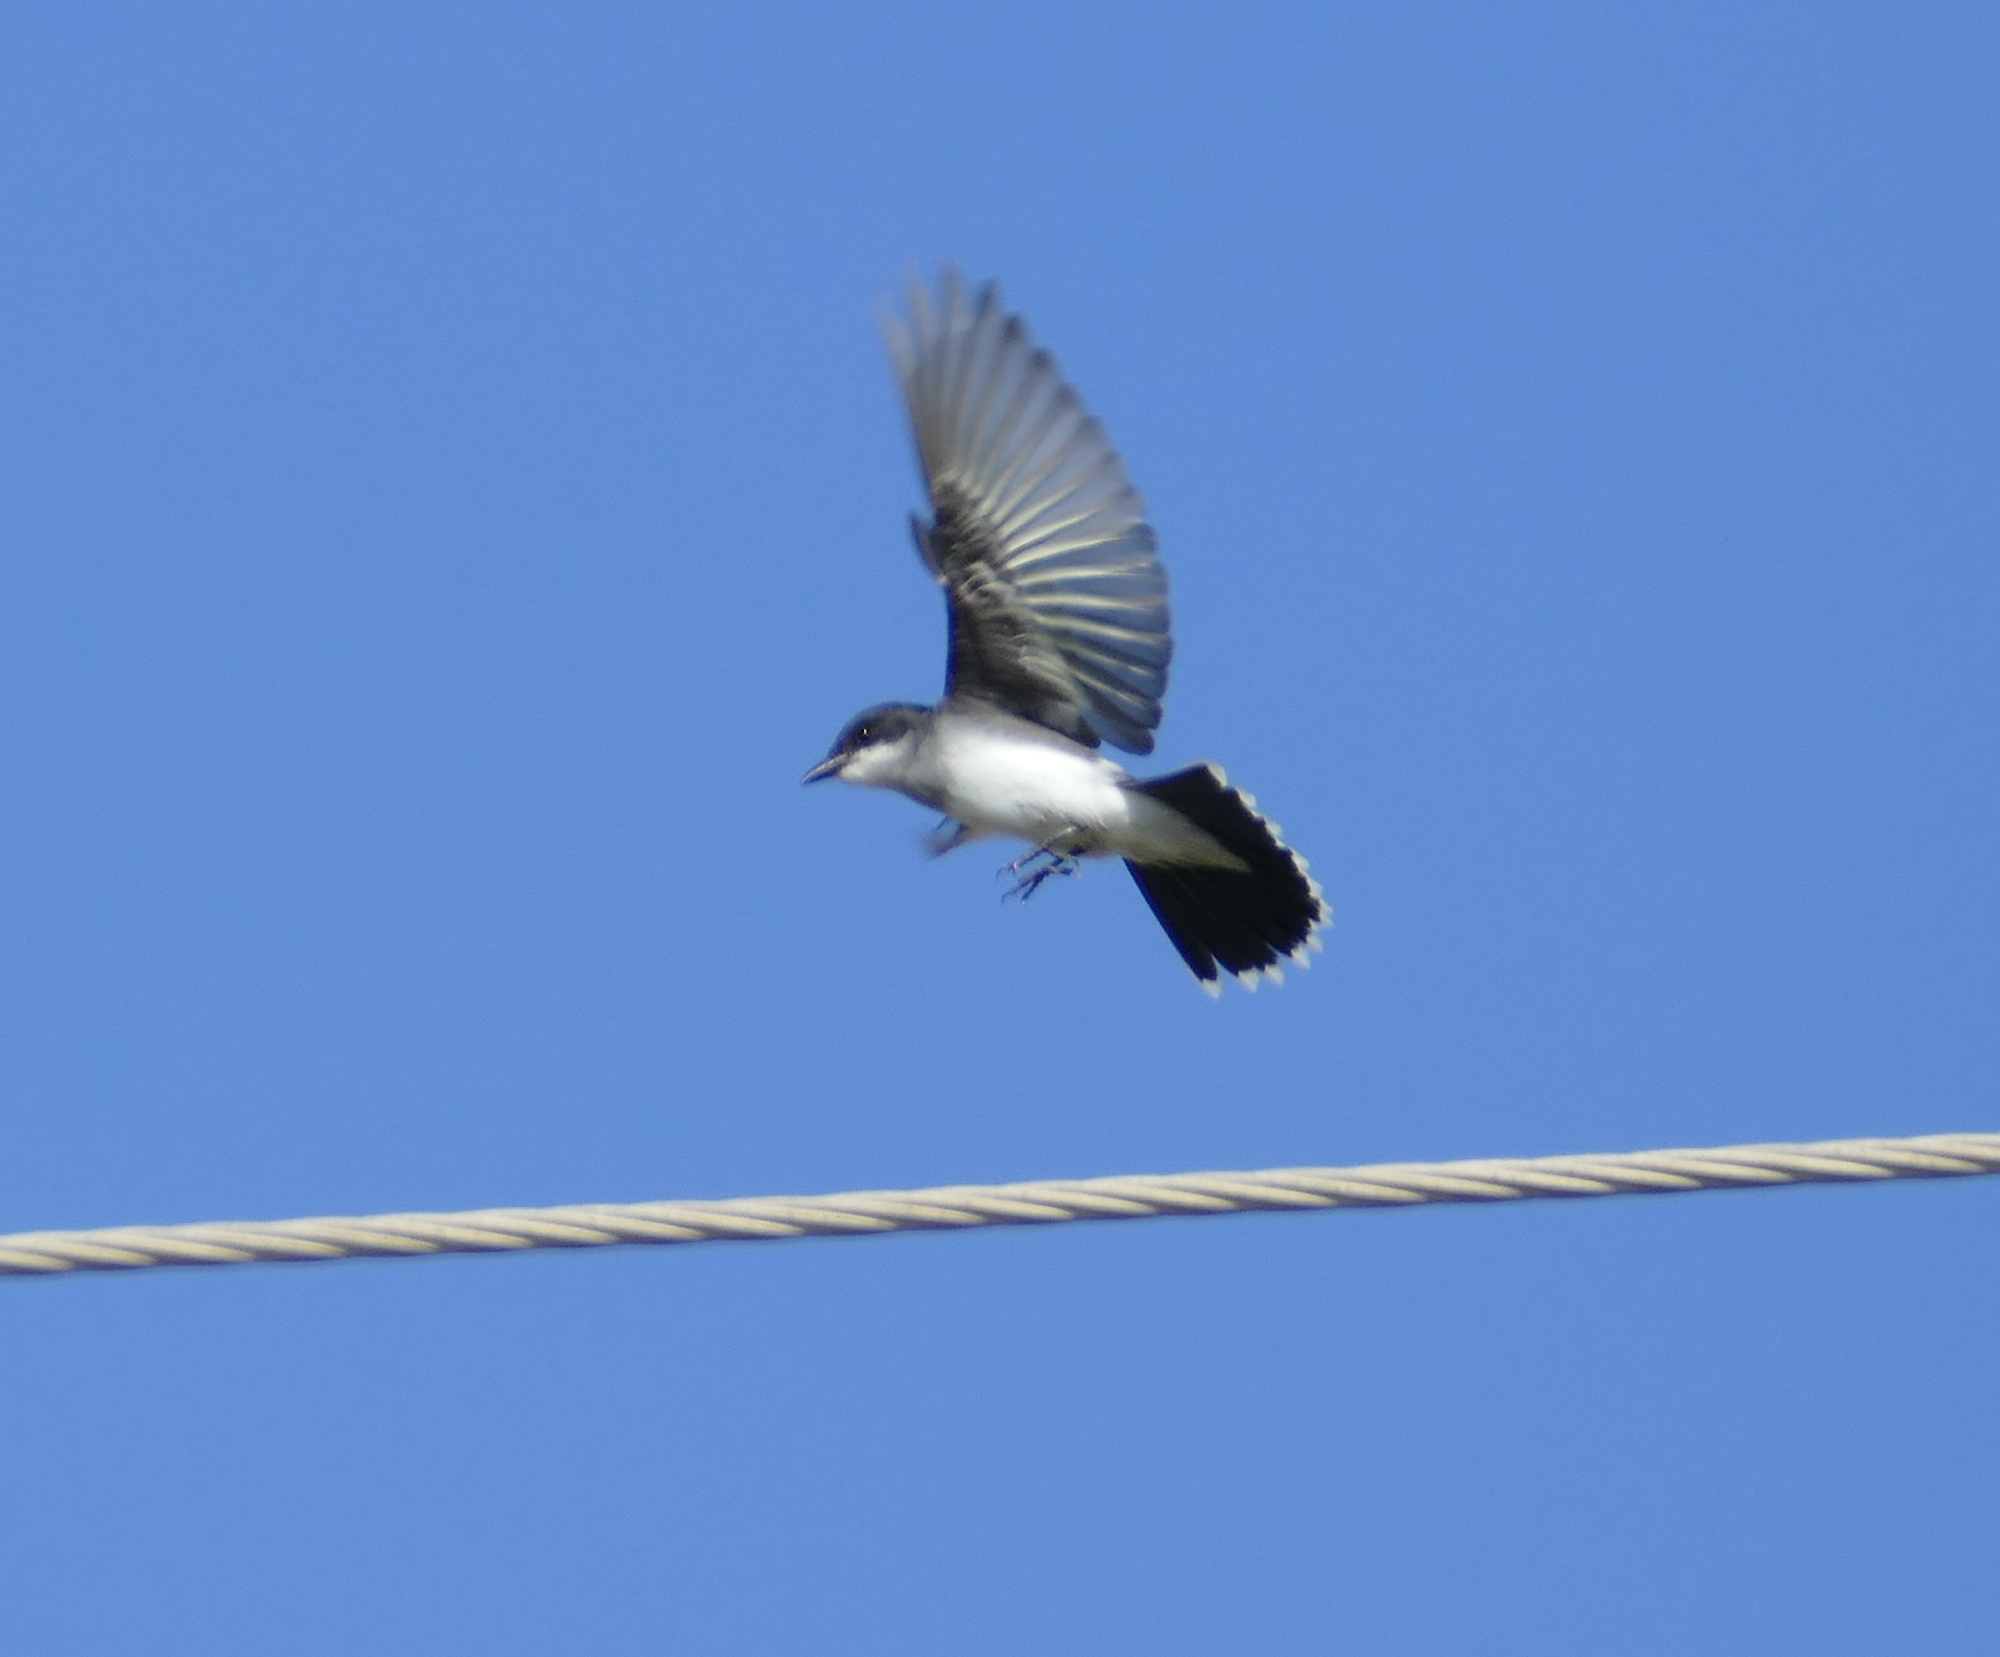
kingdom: Animalia
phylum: Chordata
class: Aves
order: Passeriformes
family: Tyrannidae
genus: Tyrannus
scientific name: Tyrannus tyrannus
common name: Eastern kingbird
